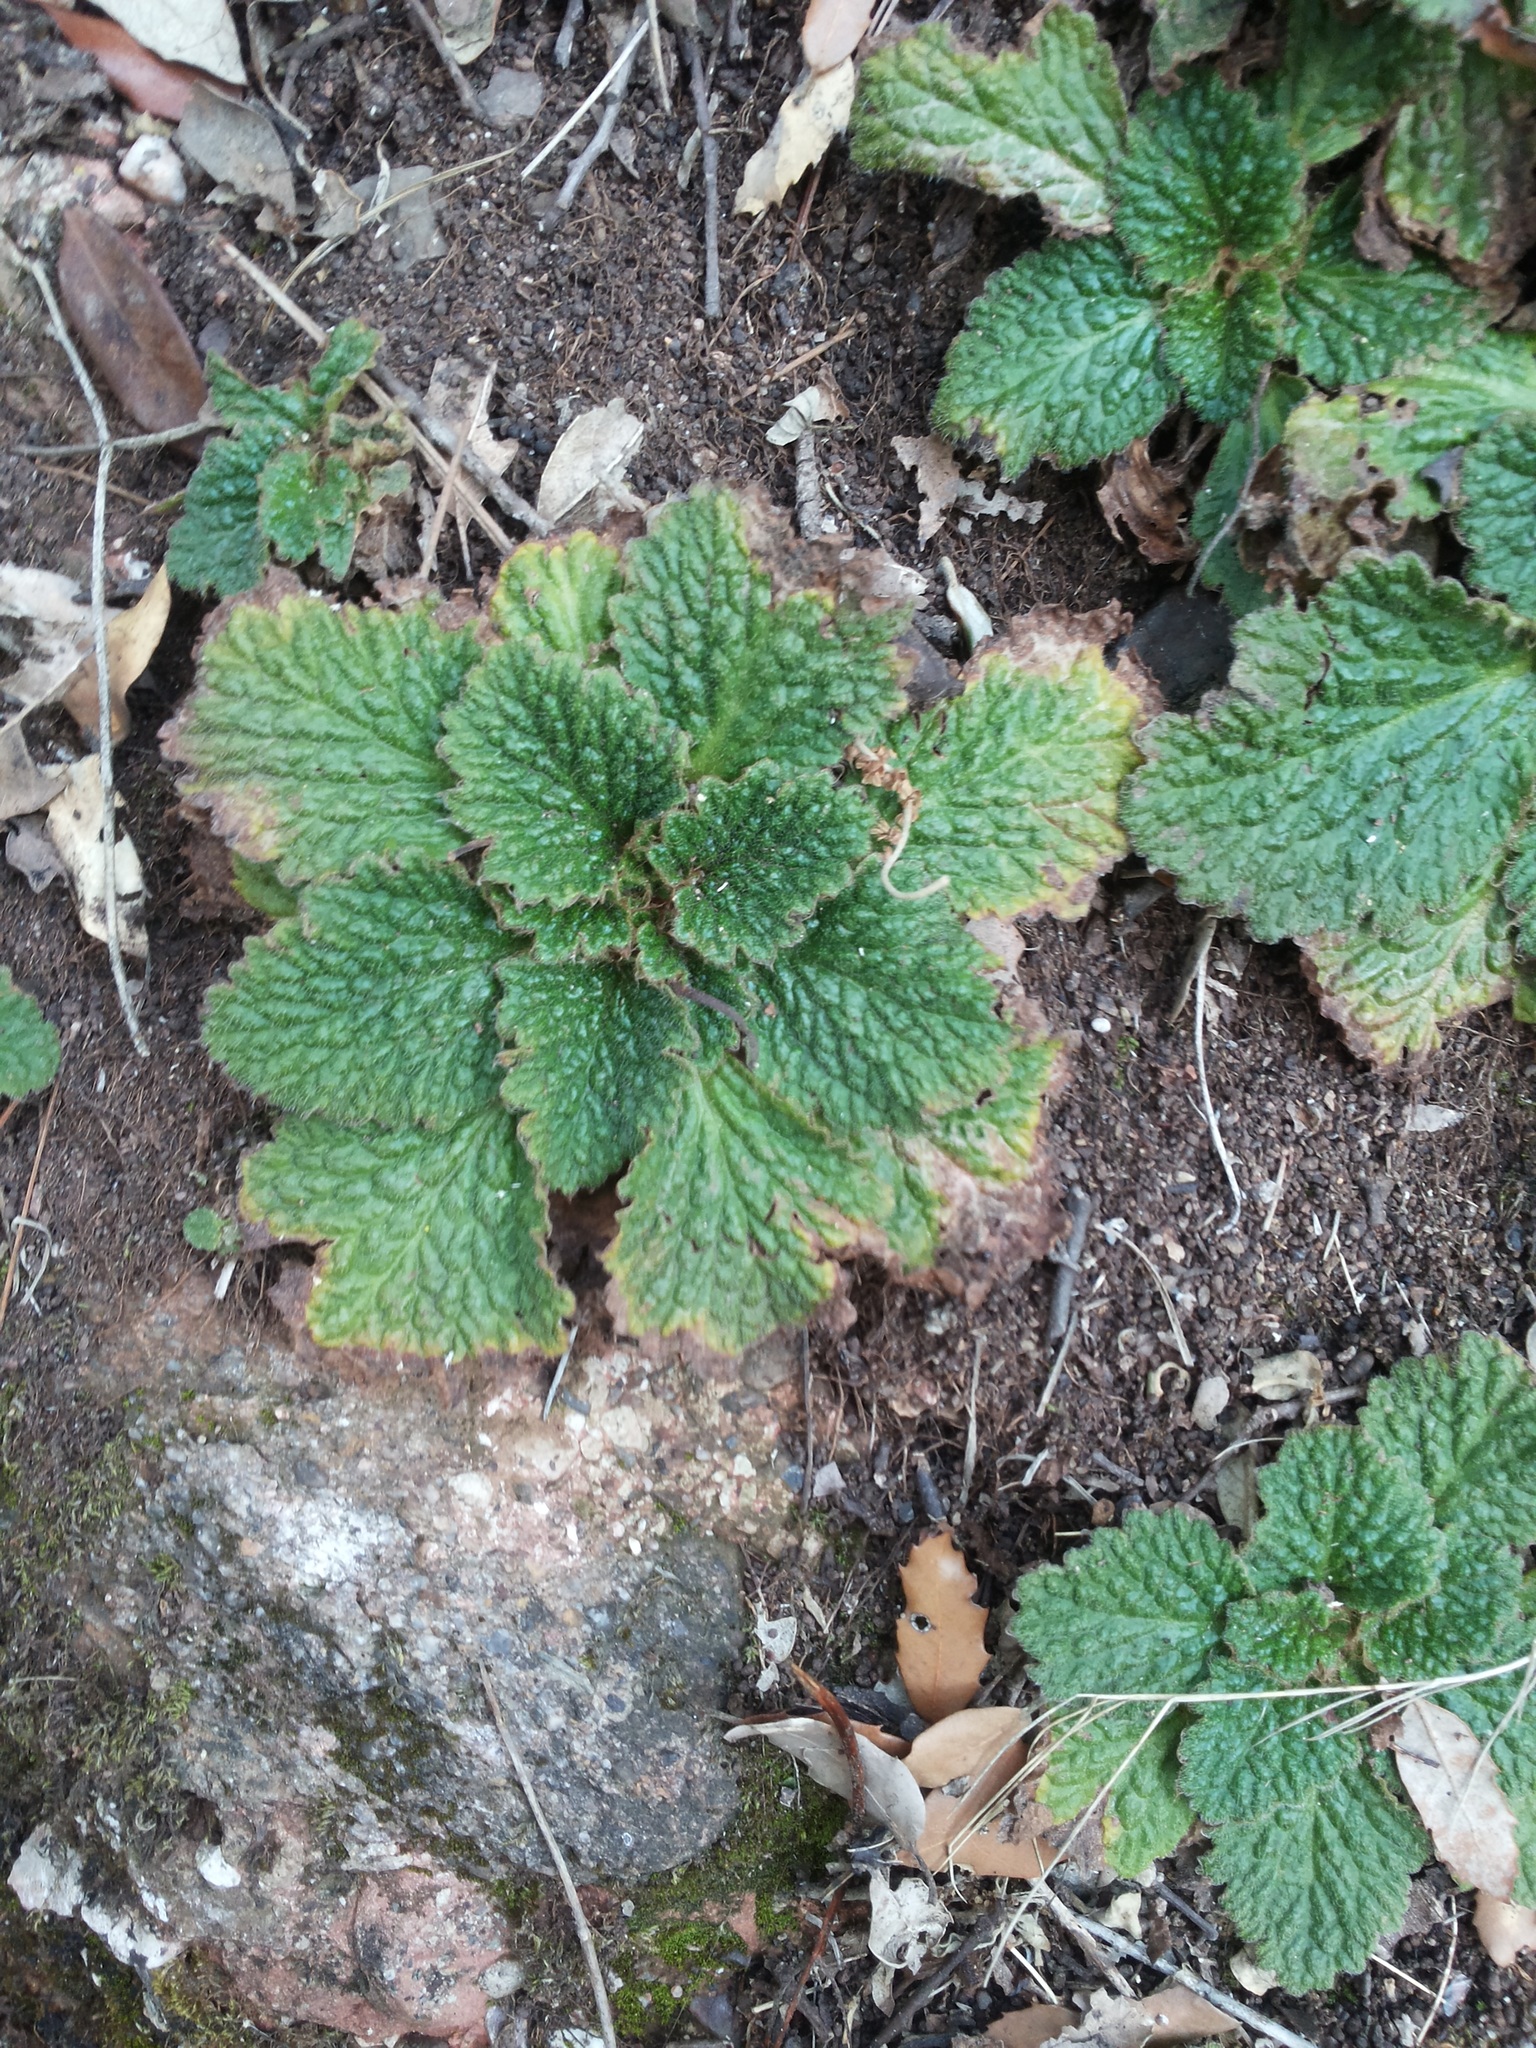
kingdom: Plantae
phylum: Tracheophyta
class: Magnoliopsida
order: Lamiales
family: Gesneriaceae
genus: Ramonda
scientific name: Ramonda myconi
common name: Pyrenean-violet
